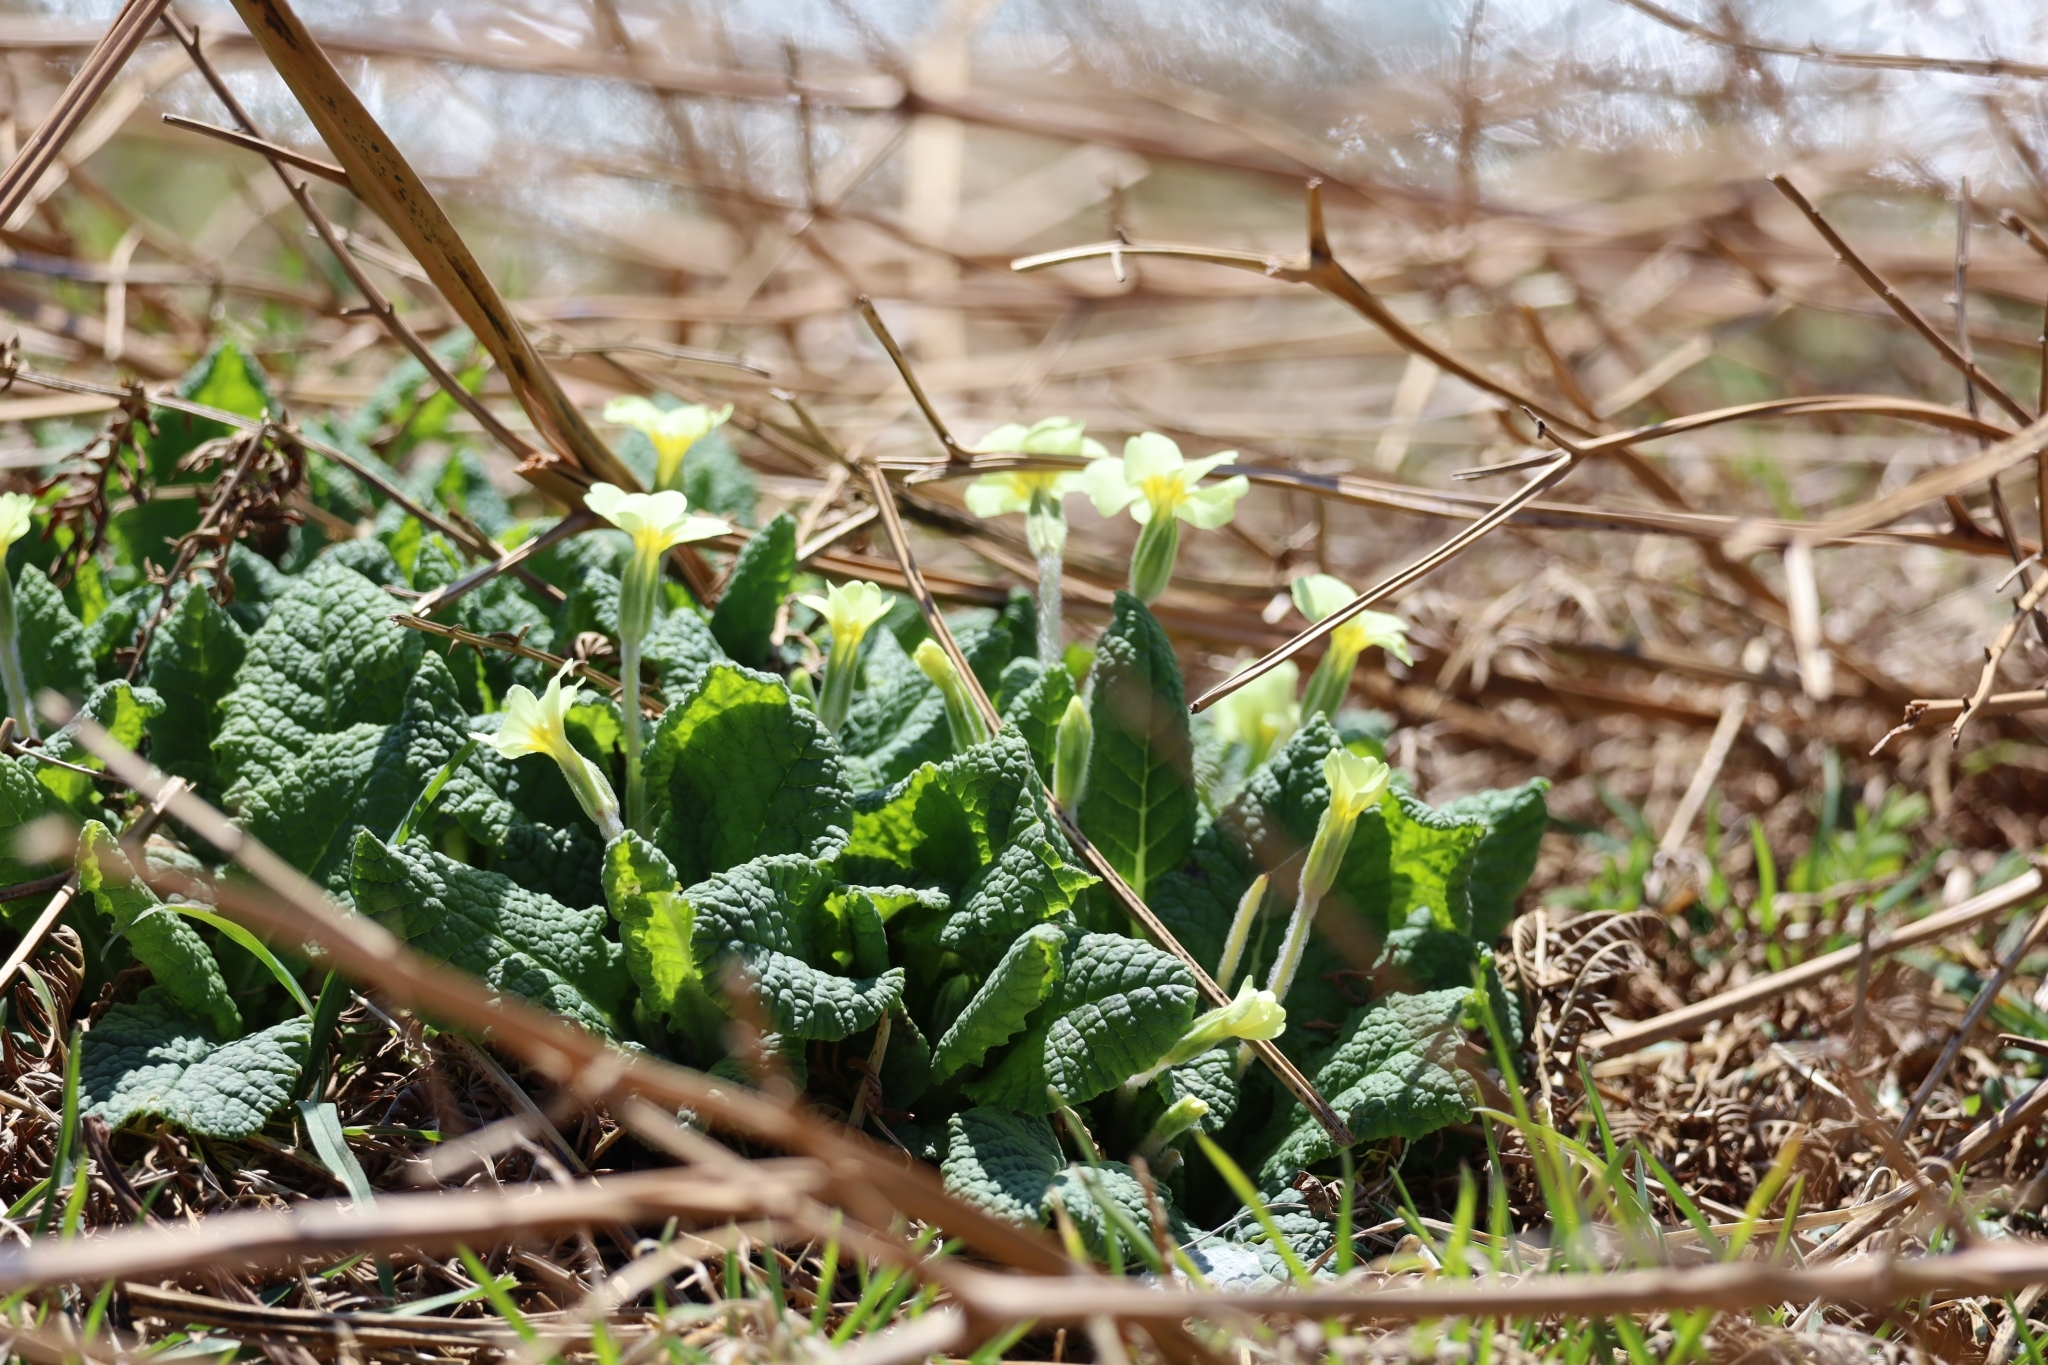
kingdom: Plantae
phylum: Tracheophyta
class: Magnoliopsida
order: Ericales
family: Primulaceae
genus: Primula
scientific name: Primula vulgaris
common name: Primrose
